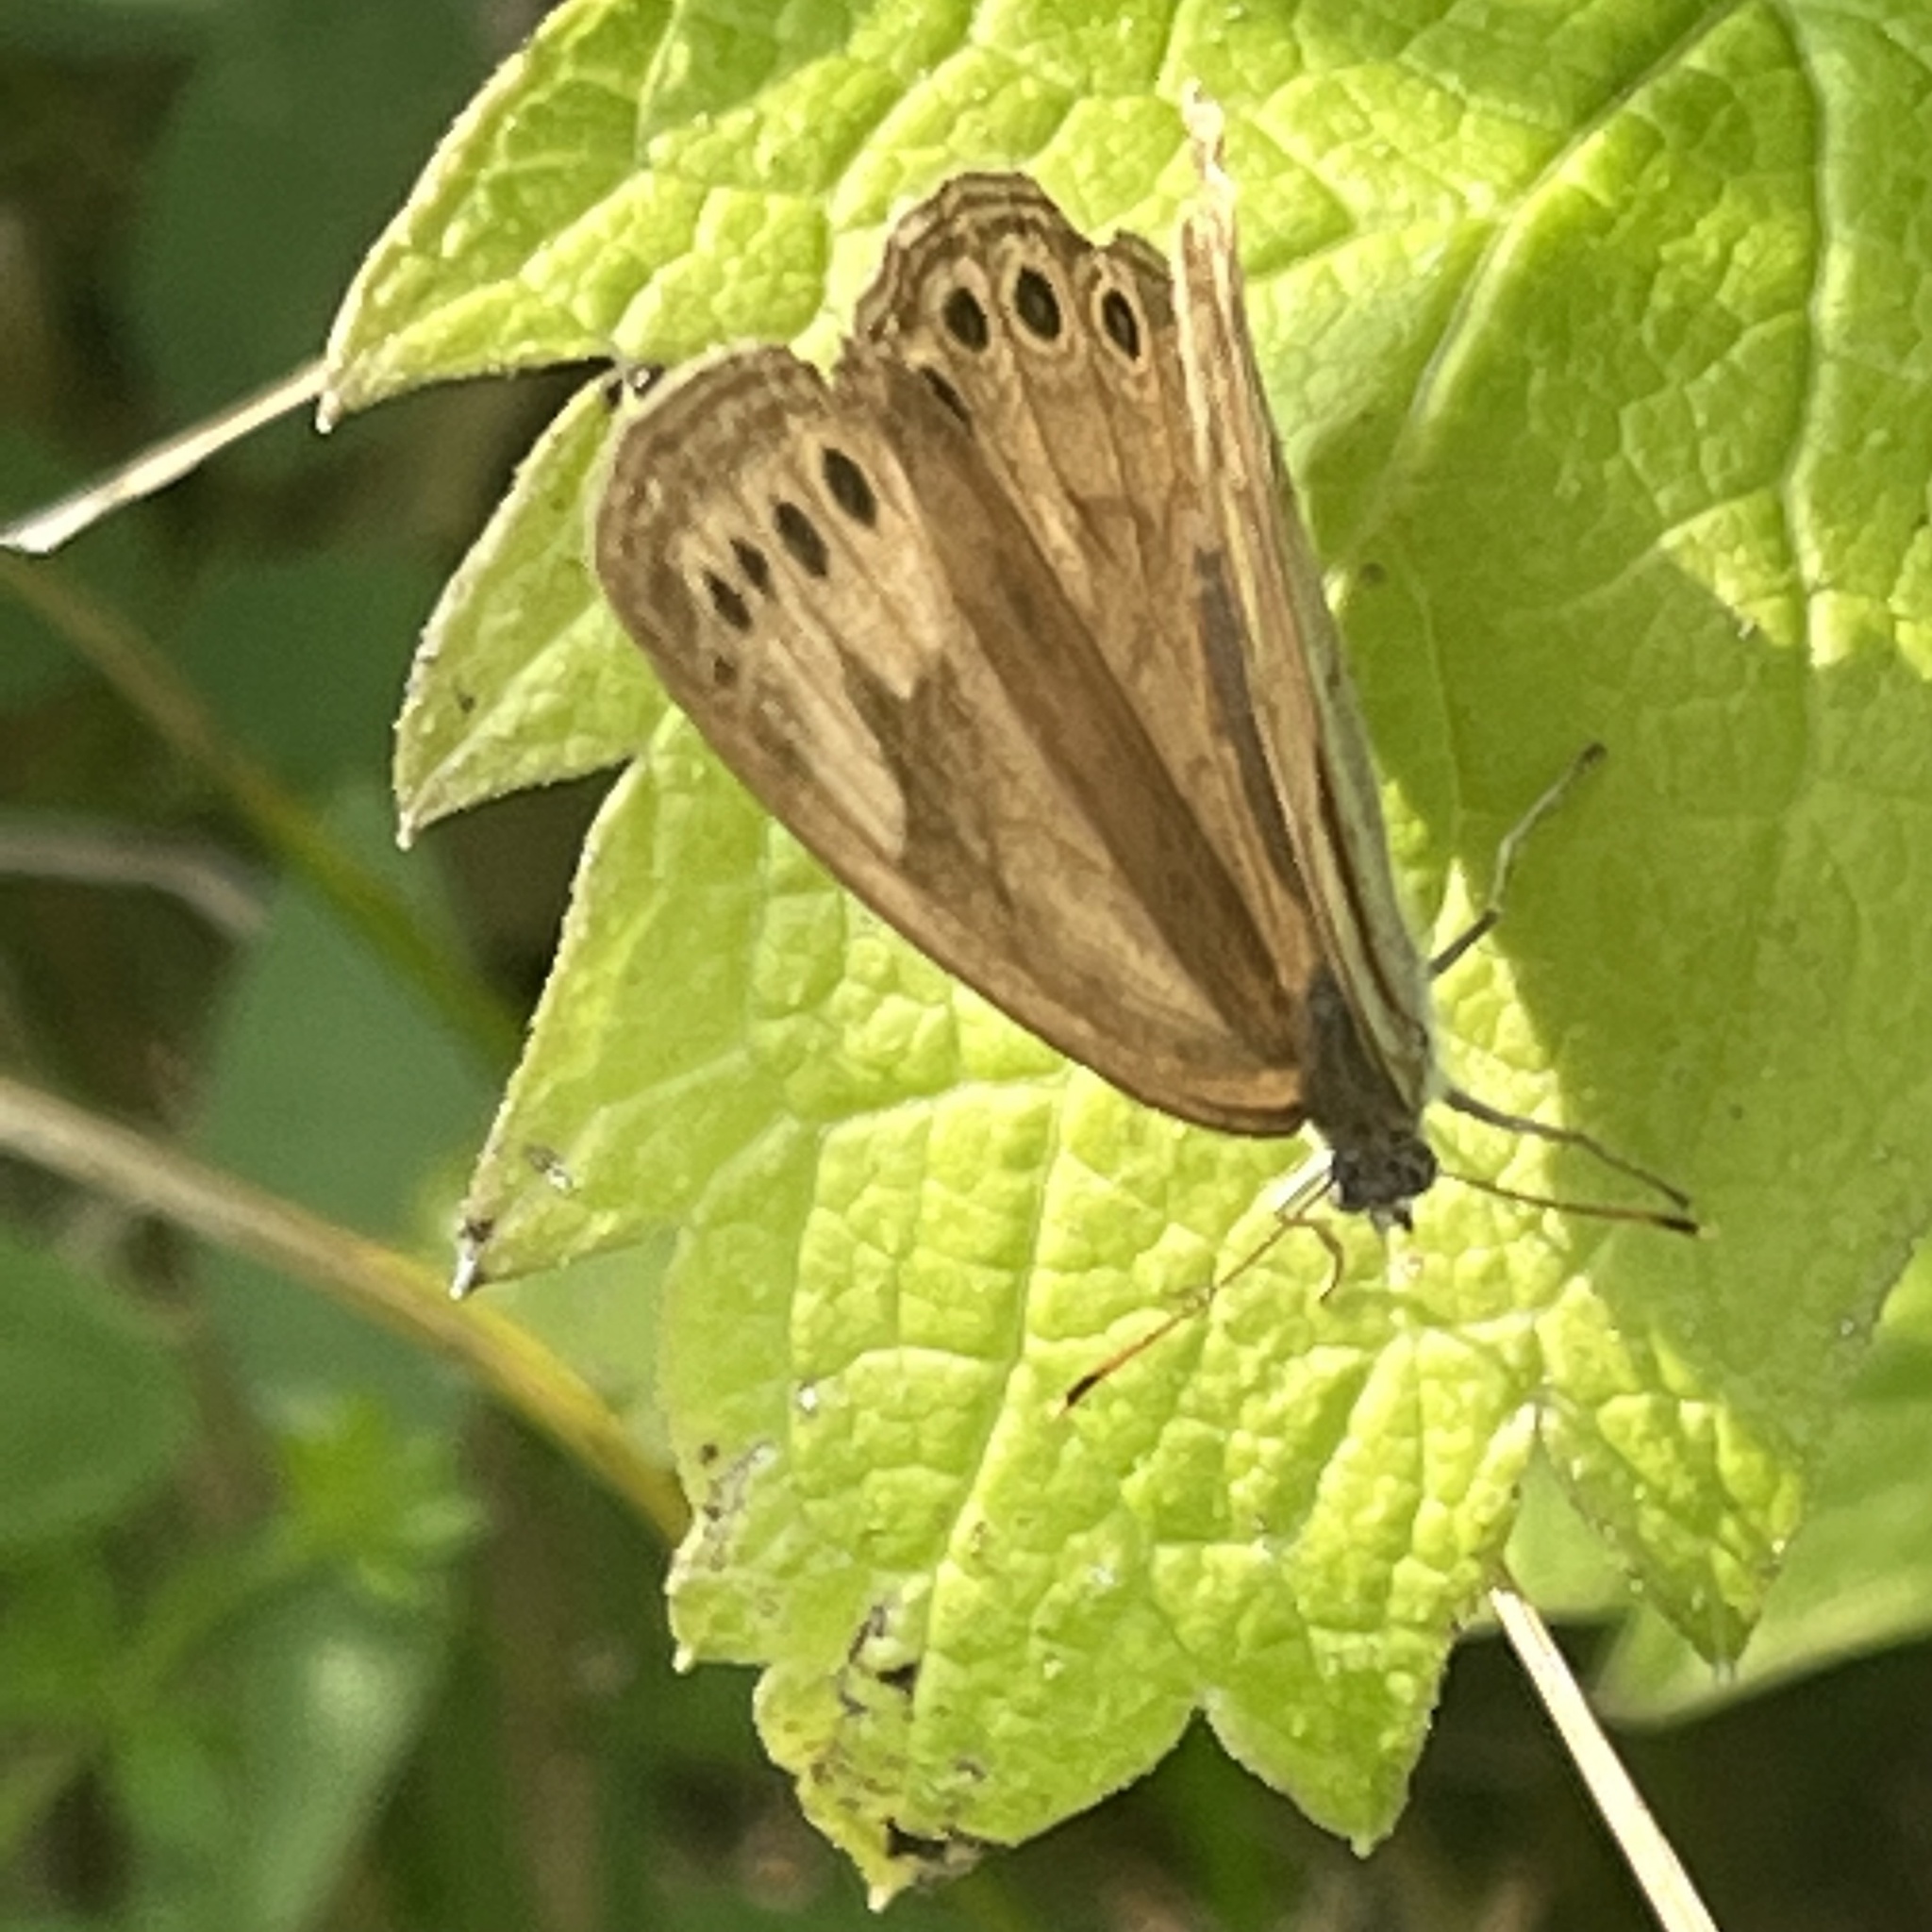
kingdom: Animalia
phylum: Arthropoda
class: Insecta
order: Lepidoptera
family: Nymphalidae
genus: Lethe
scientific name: Lethe eurydice
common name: Eyed brown
